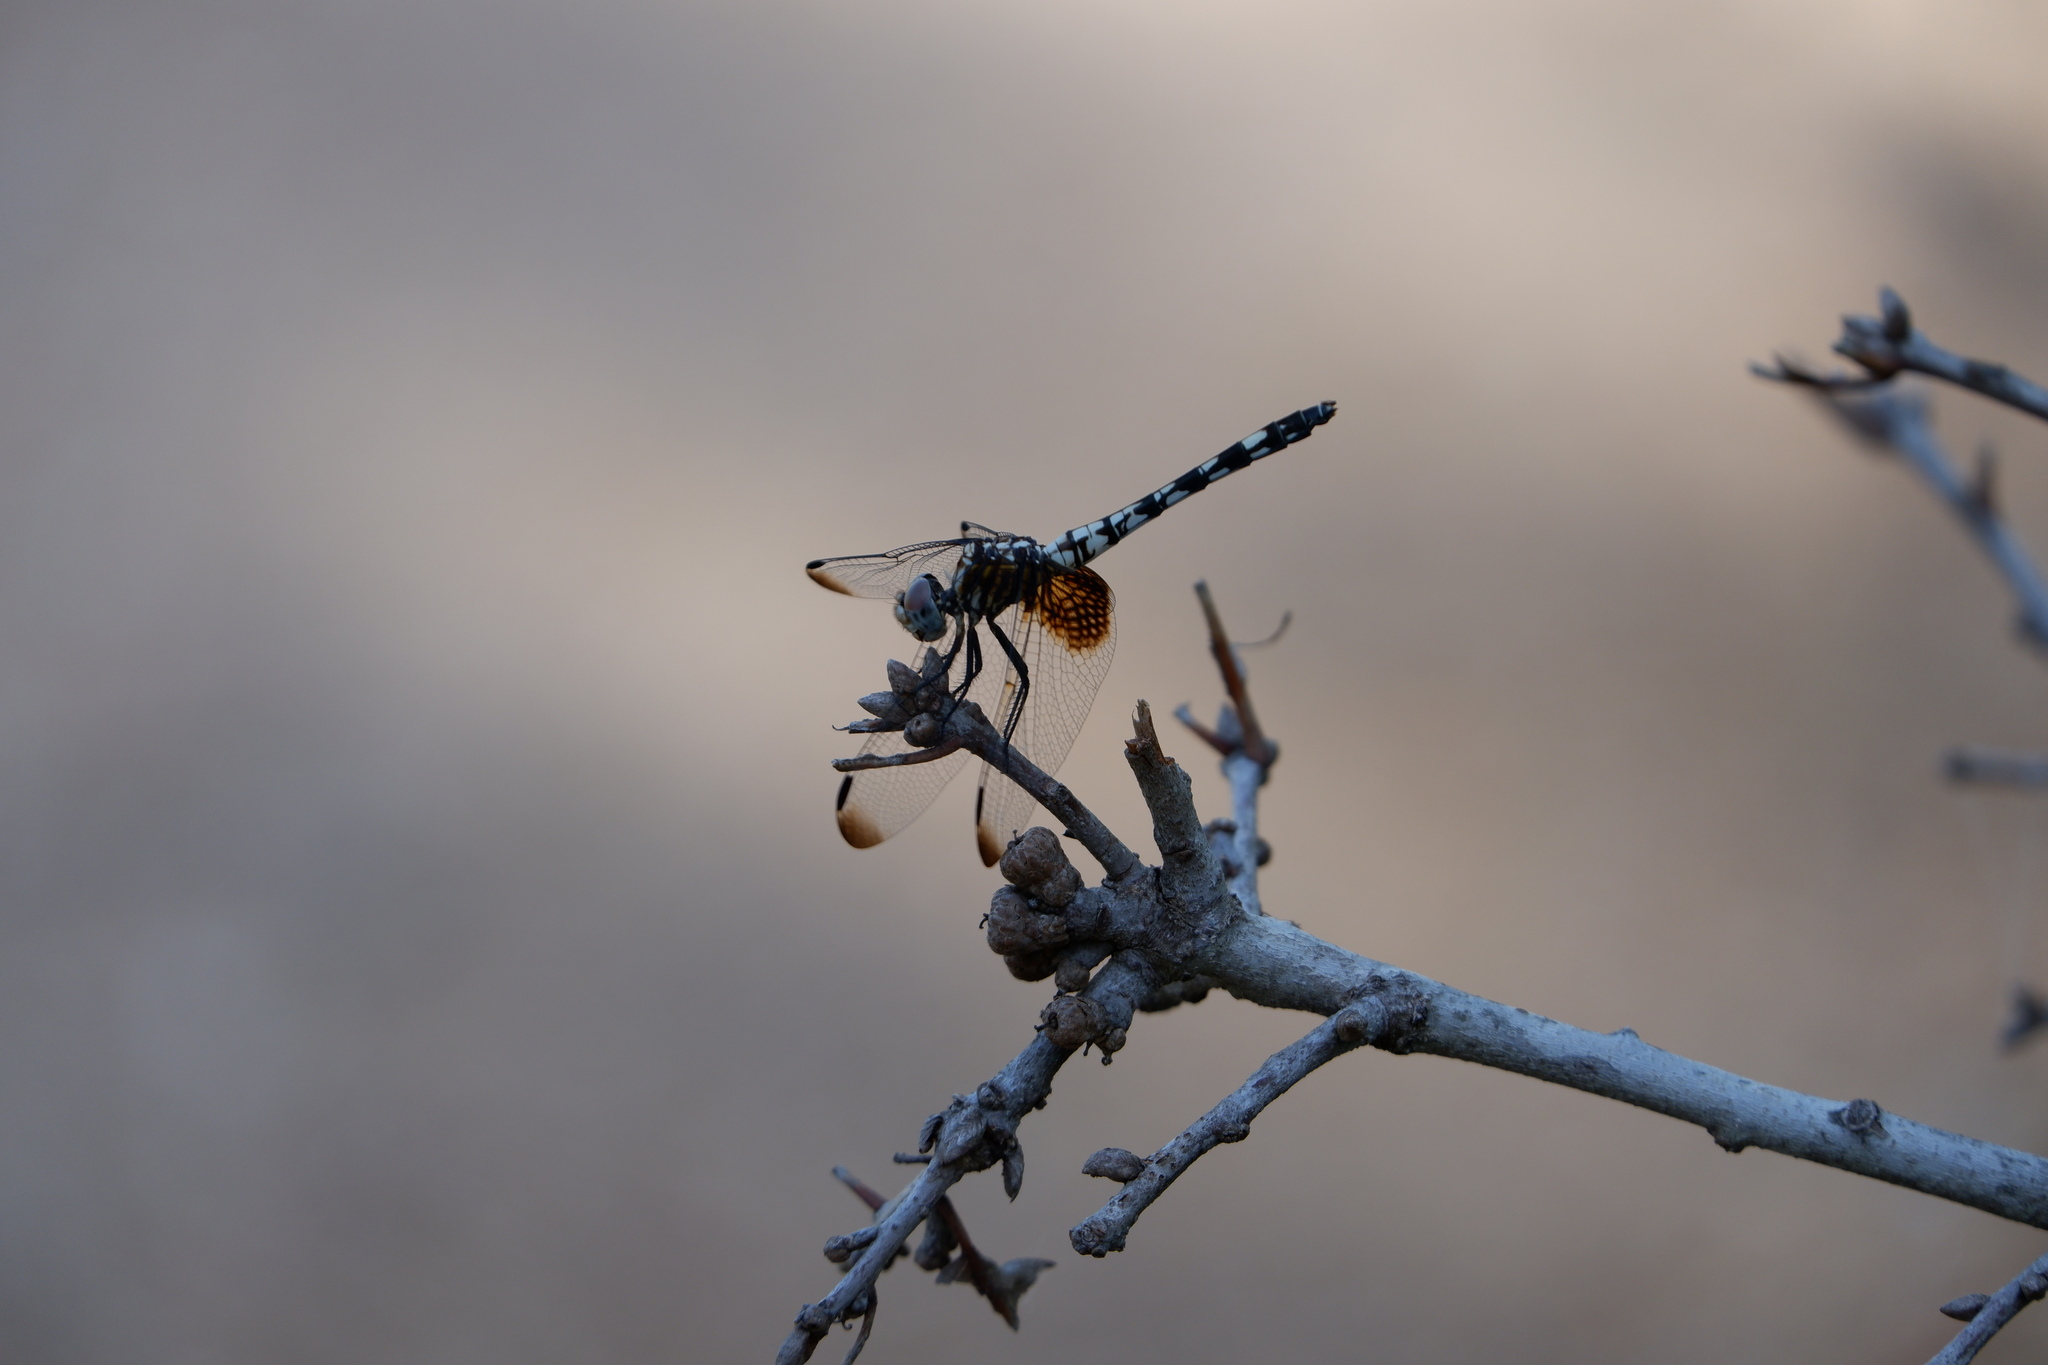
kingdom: Animalia
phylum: Arthropoda
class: Insecta
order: Odonata
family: Libellulidae
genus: Dythemis
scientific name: Dythemis fugax
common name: Checkered setwing
